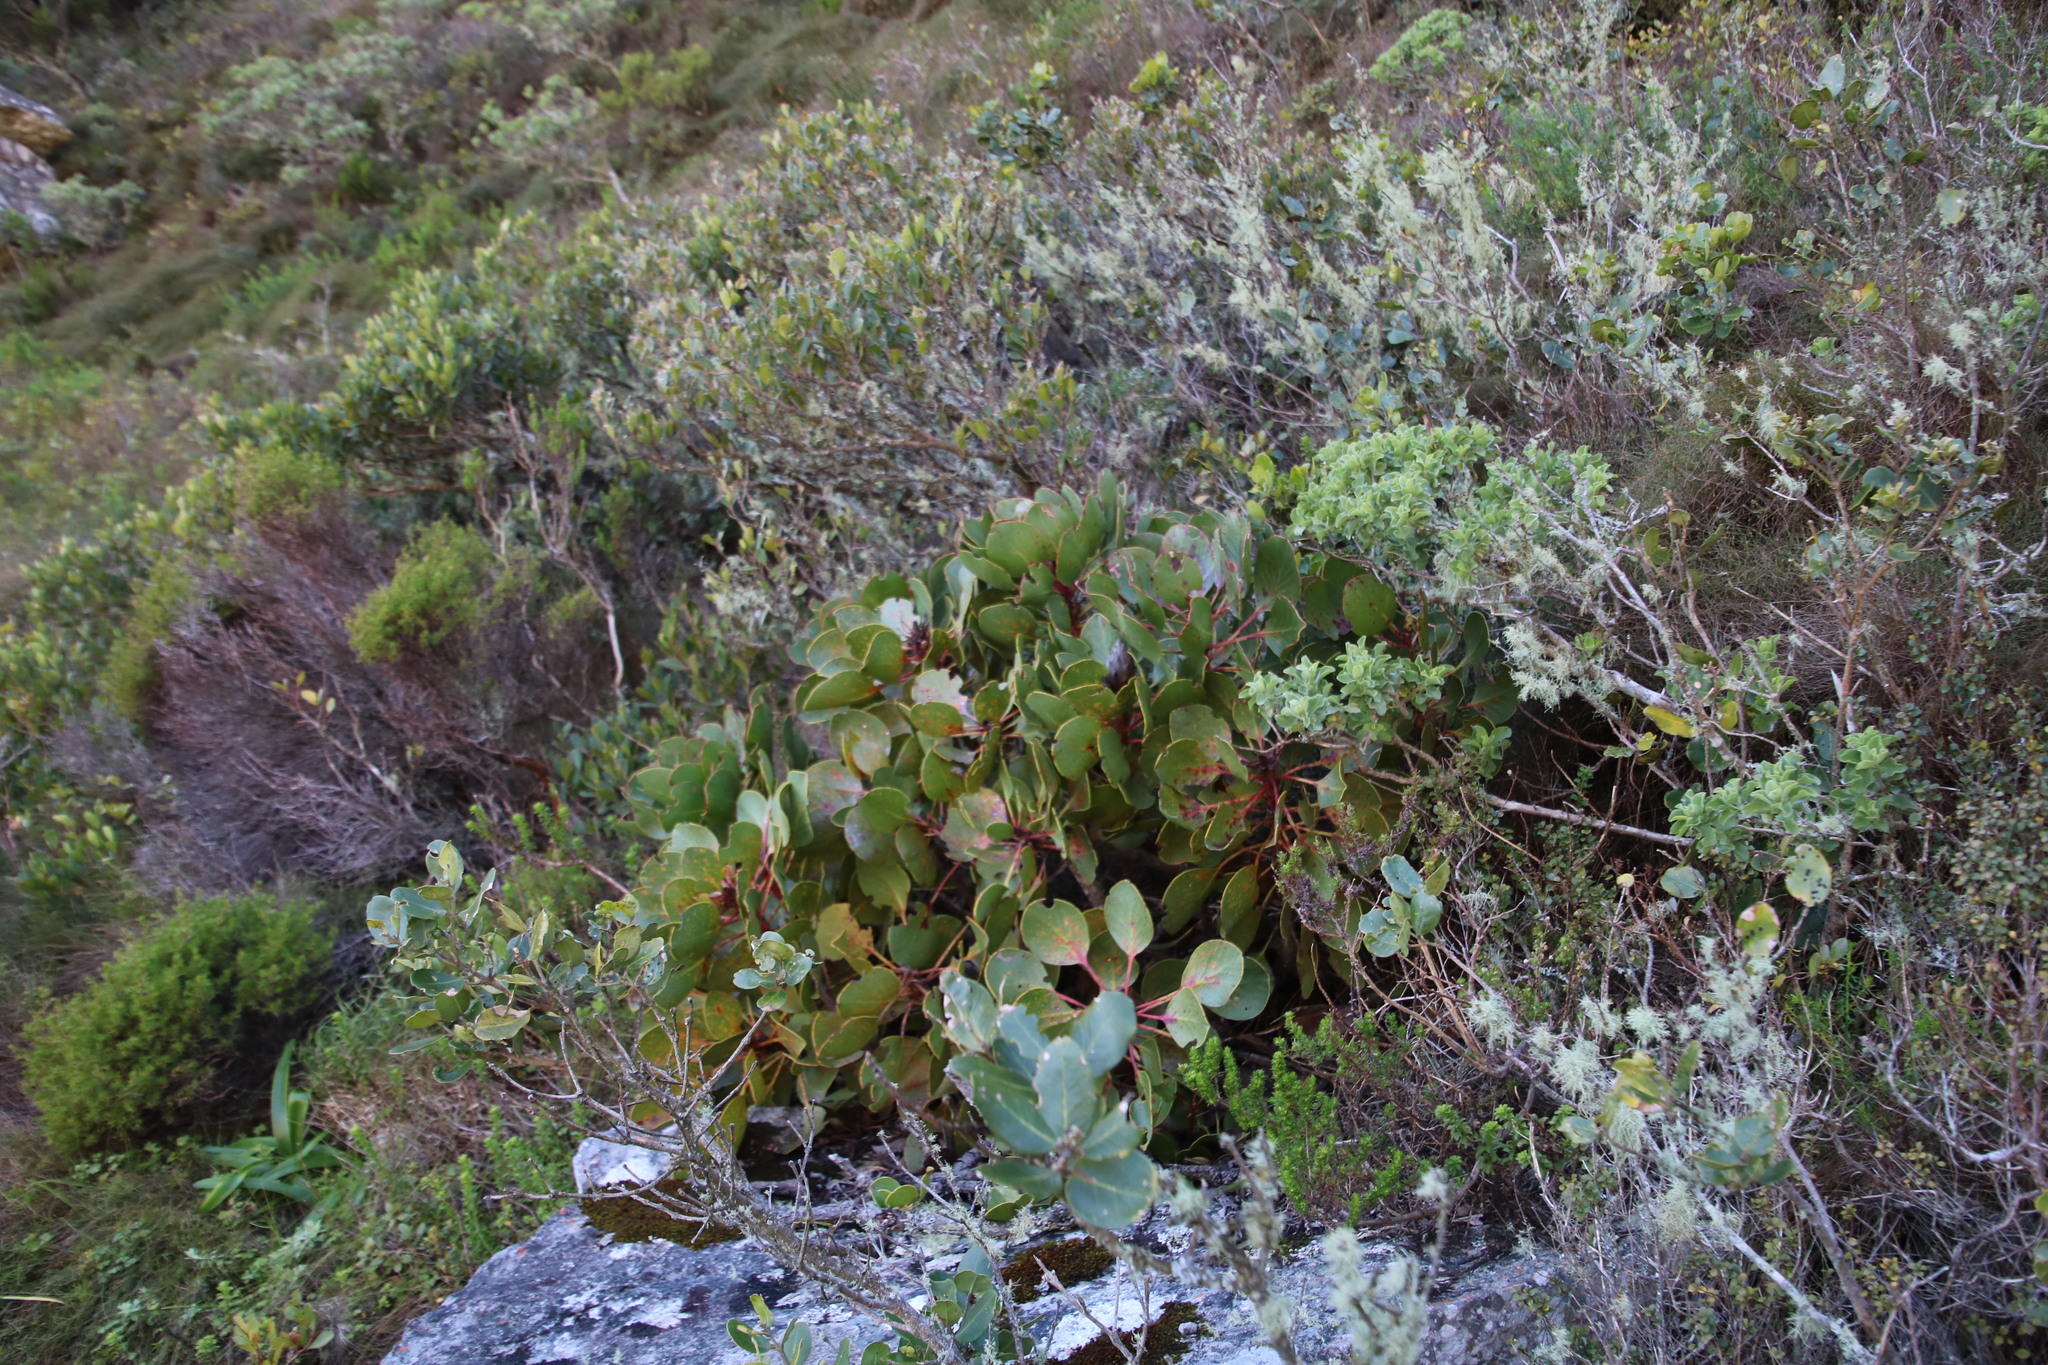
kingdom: Plantae
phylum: Tracheophyta
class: Magnoliopsida
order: Proteales
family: Proteaceae
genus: Protea
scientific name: Protea cynaroides
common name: King protea
